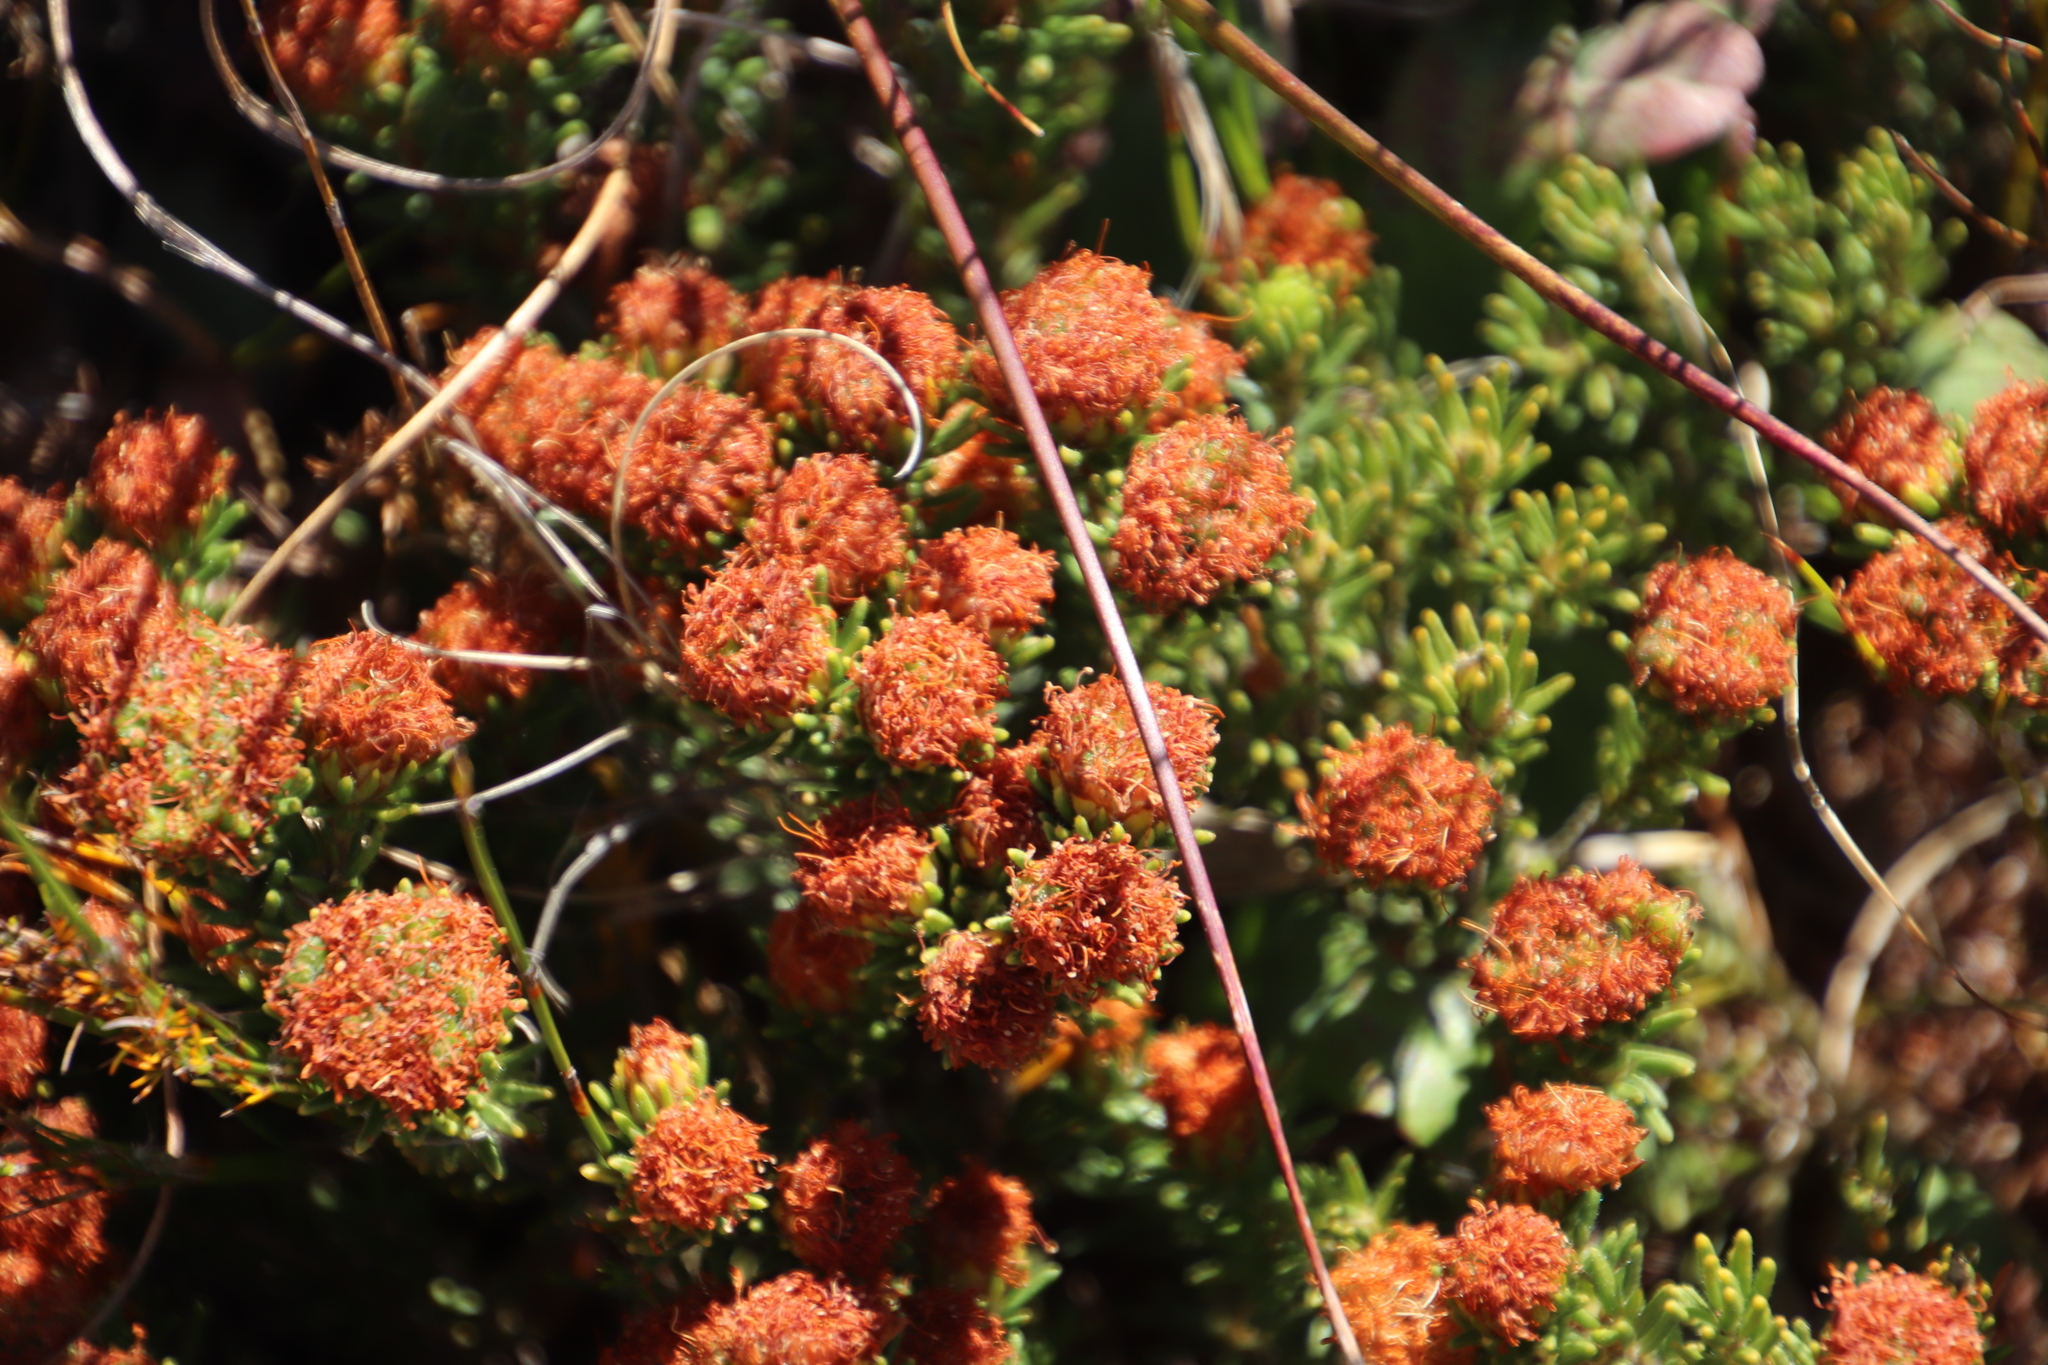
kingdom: Plantae
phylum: Tracheophyta
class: Magnoliopsida
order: Sapindales
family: Rutaceae
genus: Macrostylis
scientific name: Macrostylis villosa
